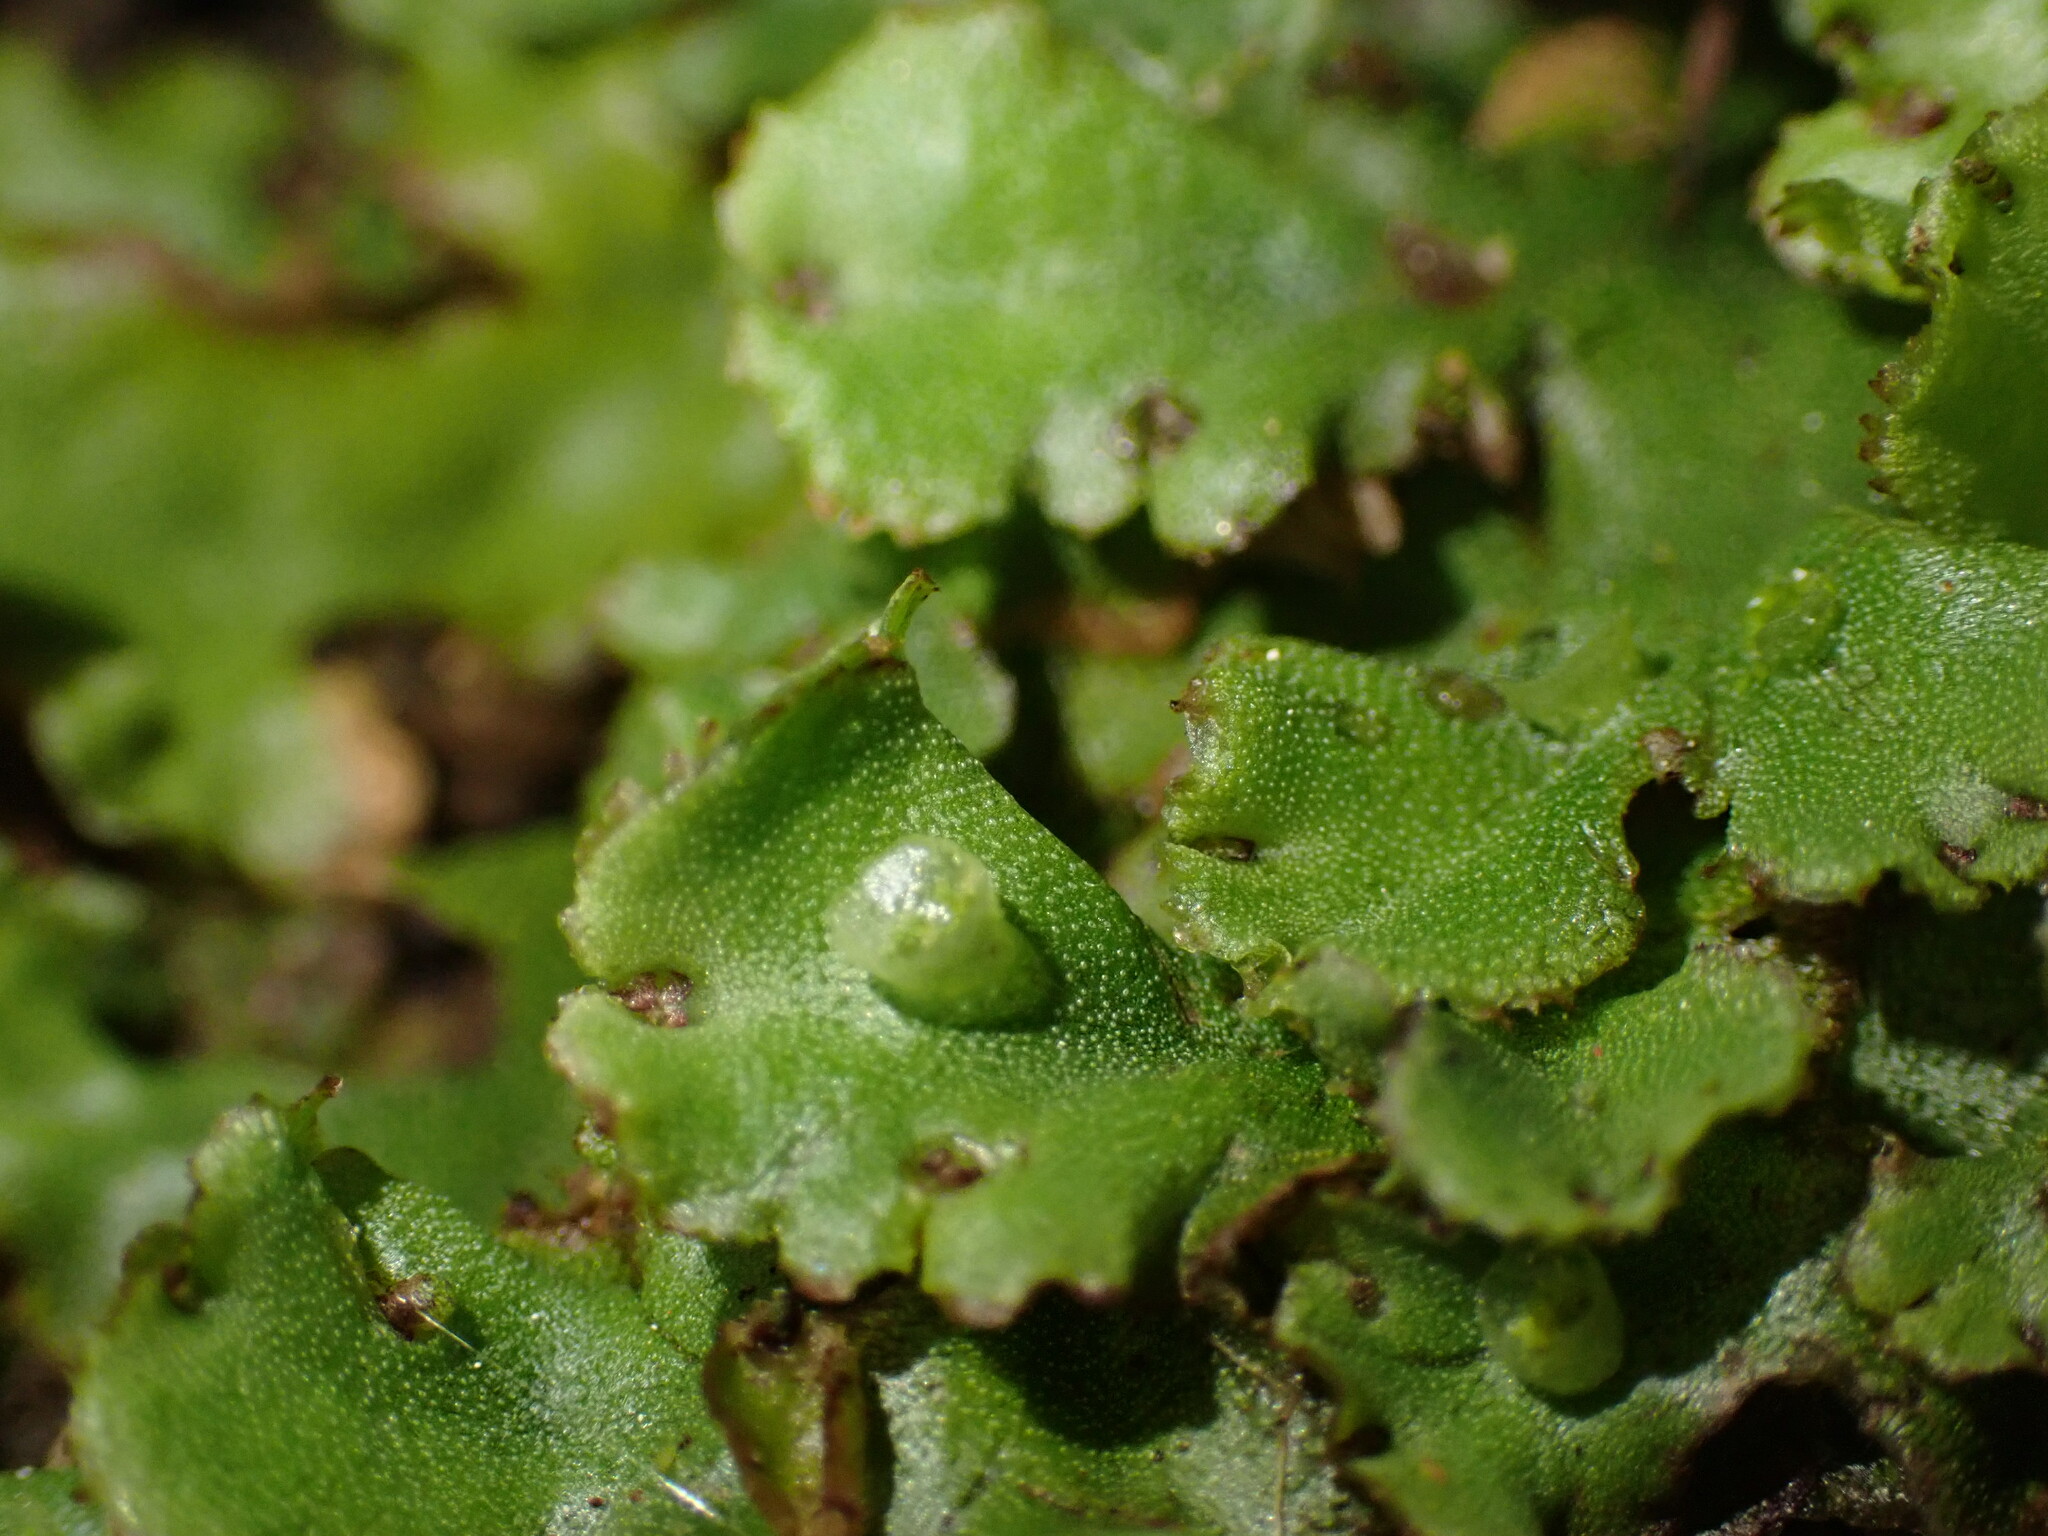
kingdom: Plantae
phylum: Marchantiophyta
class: Marchantiopsida
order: Marchantiales
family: Marchantiaceae
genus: Marchantia
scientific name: Marchantia polymorpha
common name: Common liverwort
